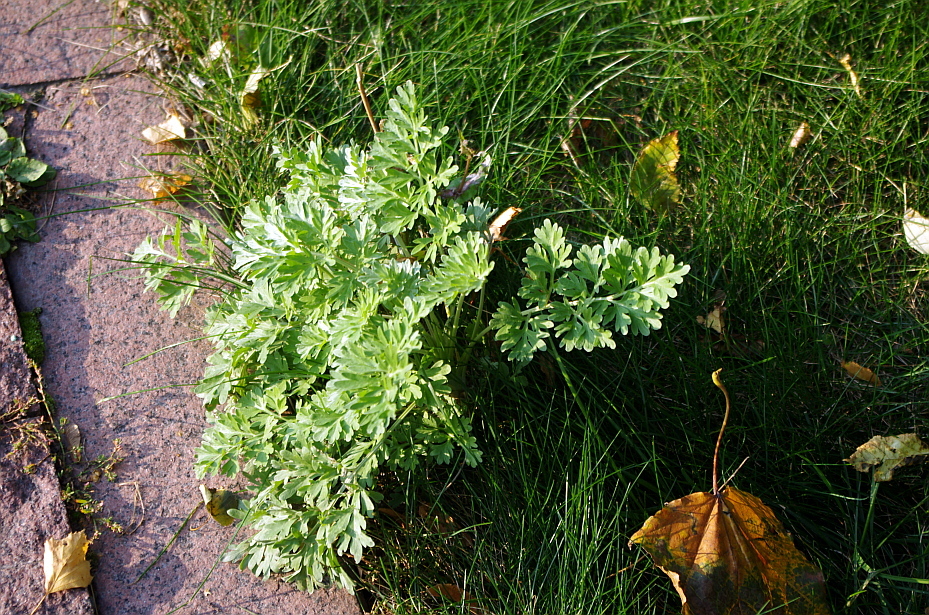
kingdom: Plantae
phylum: Tracheophyta
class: Magnoliopsida
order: Asterales
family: Asteraceae
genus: Artemisia
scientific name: Artemisia absinthium
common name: Wormwood
